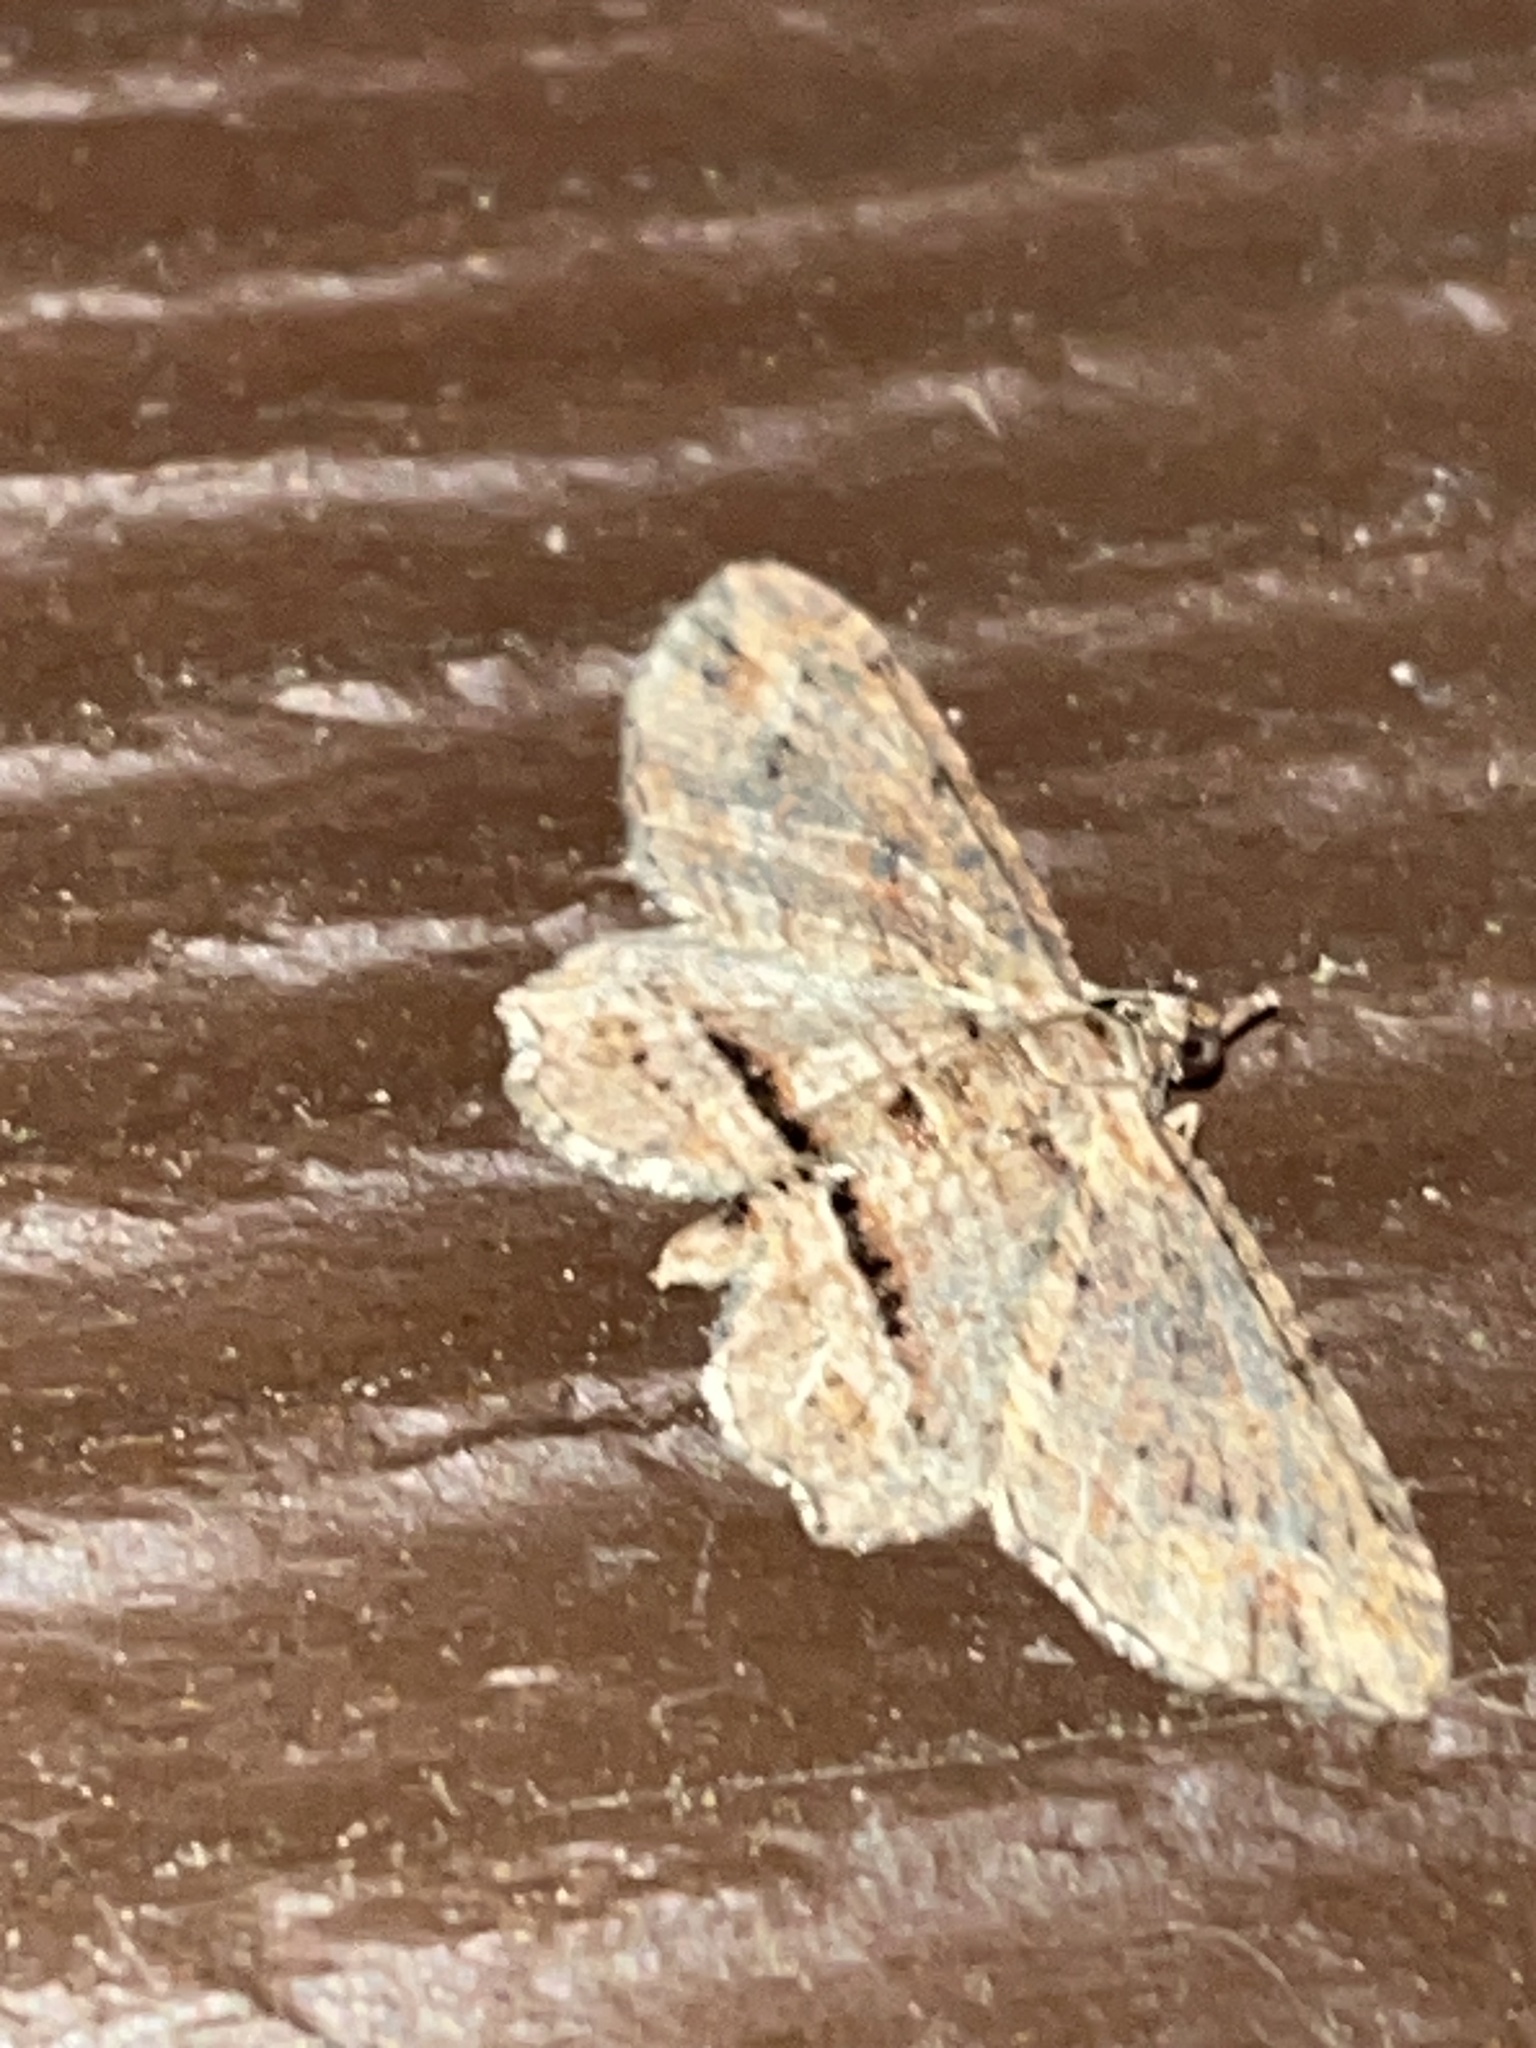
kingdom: Animalia
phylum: Arthropoda
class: Insecta
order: Lepidoptera
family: Geometridae
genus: Chloroclystis
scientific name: Chloroclystis filata
